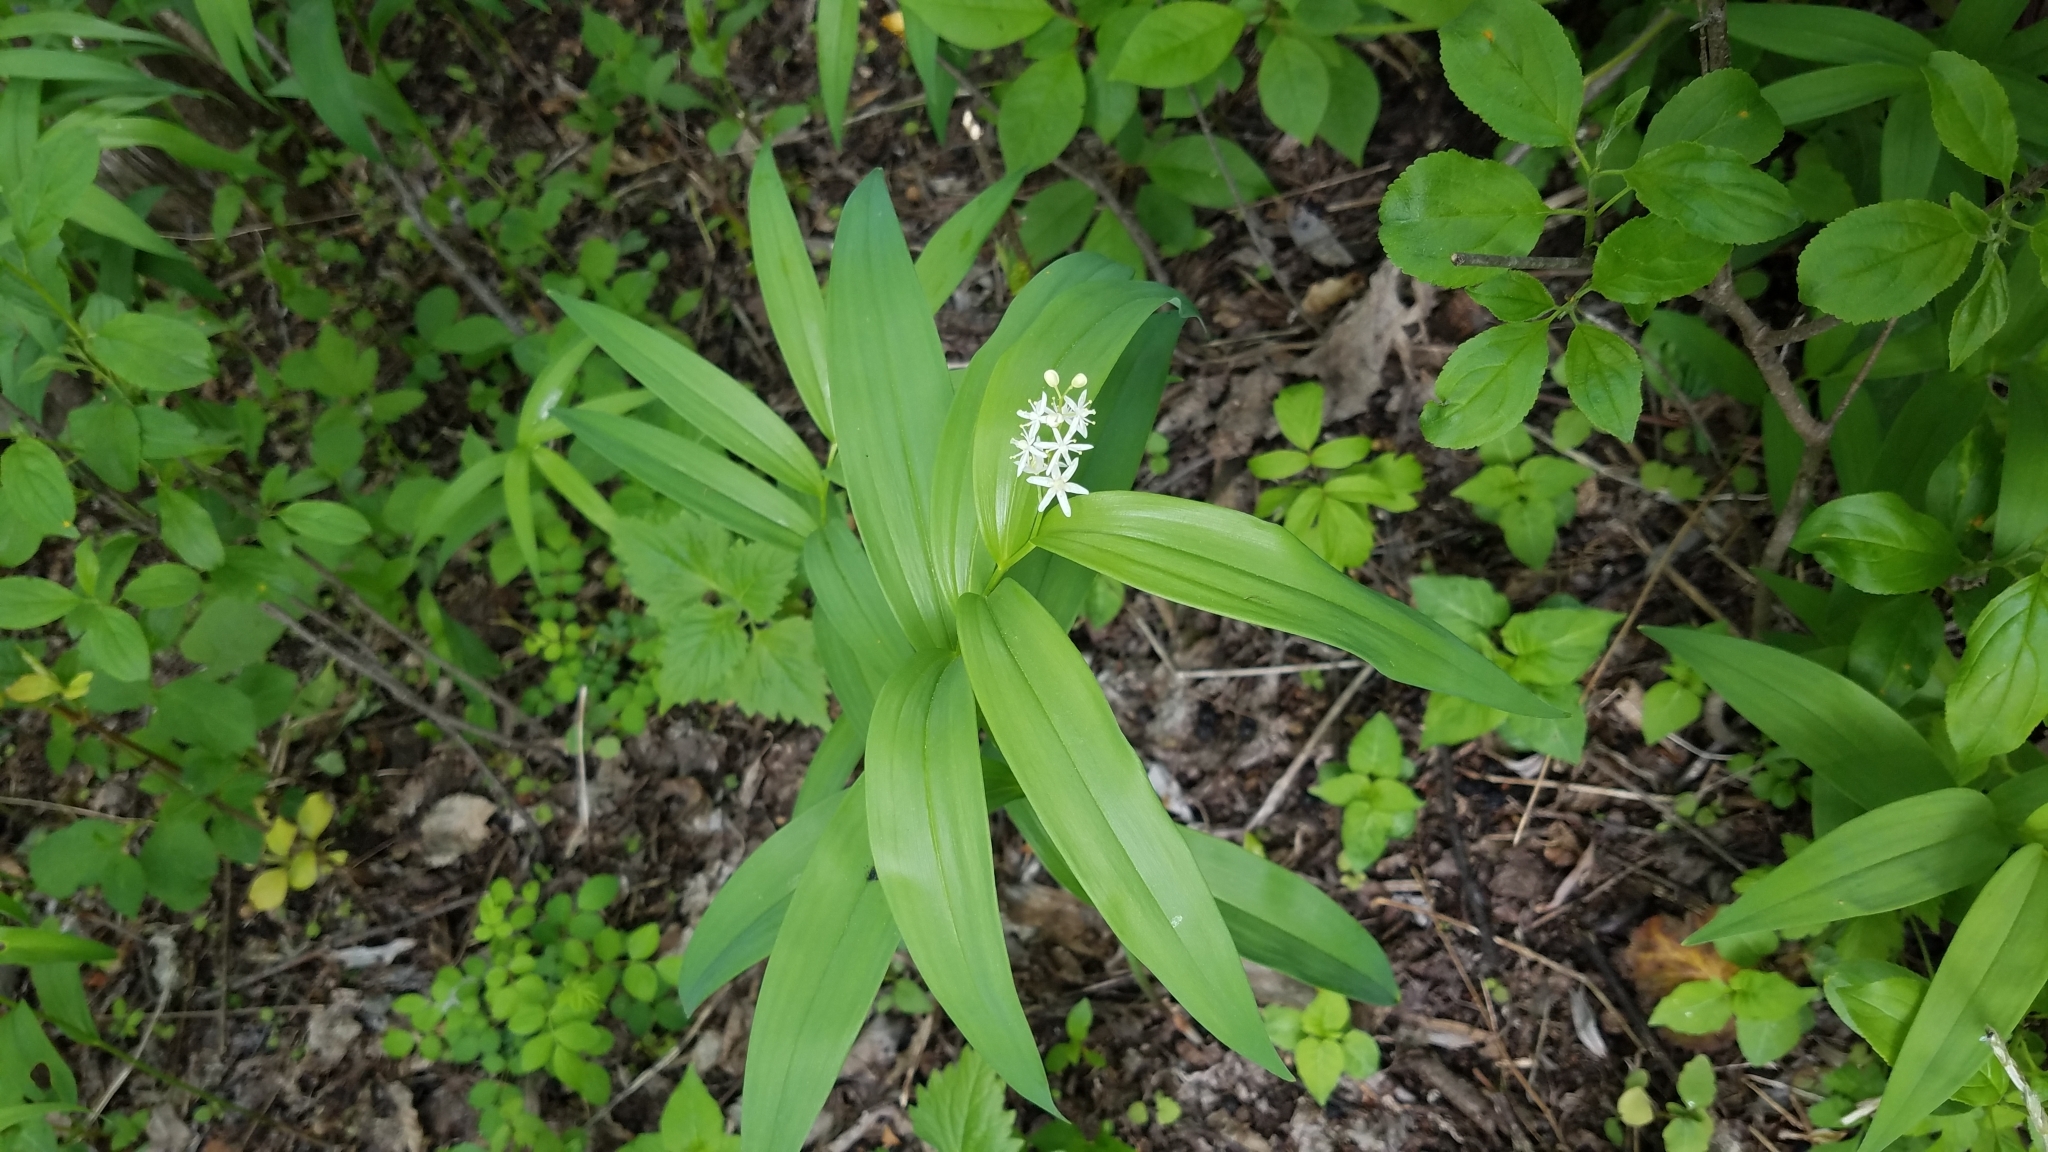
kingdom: Plantae
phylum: Tracheophyta
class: Liliopsida
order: Asparagales
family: Asparagaceae
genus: Maianthemum
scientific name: Maianthemum stellatum
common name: Little false solomon's seal
